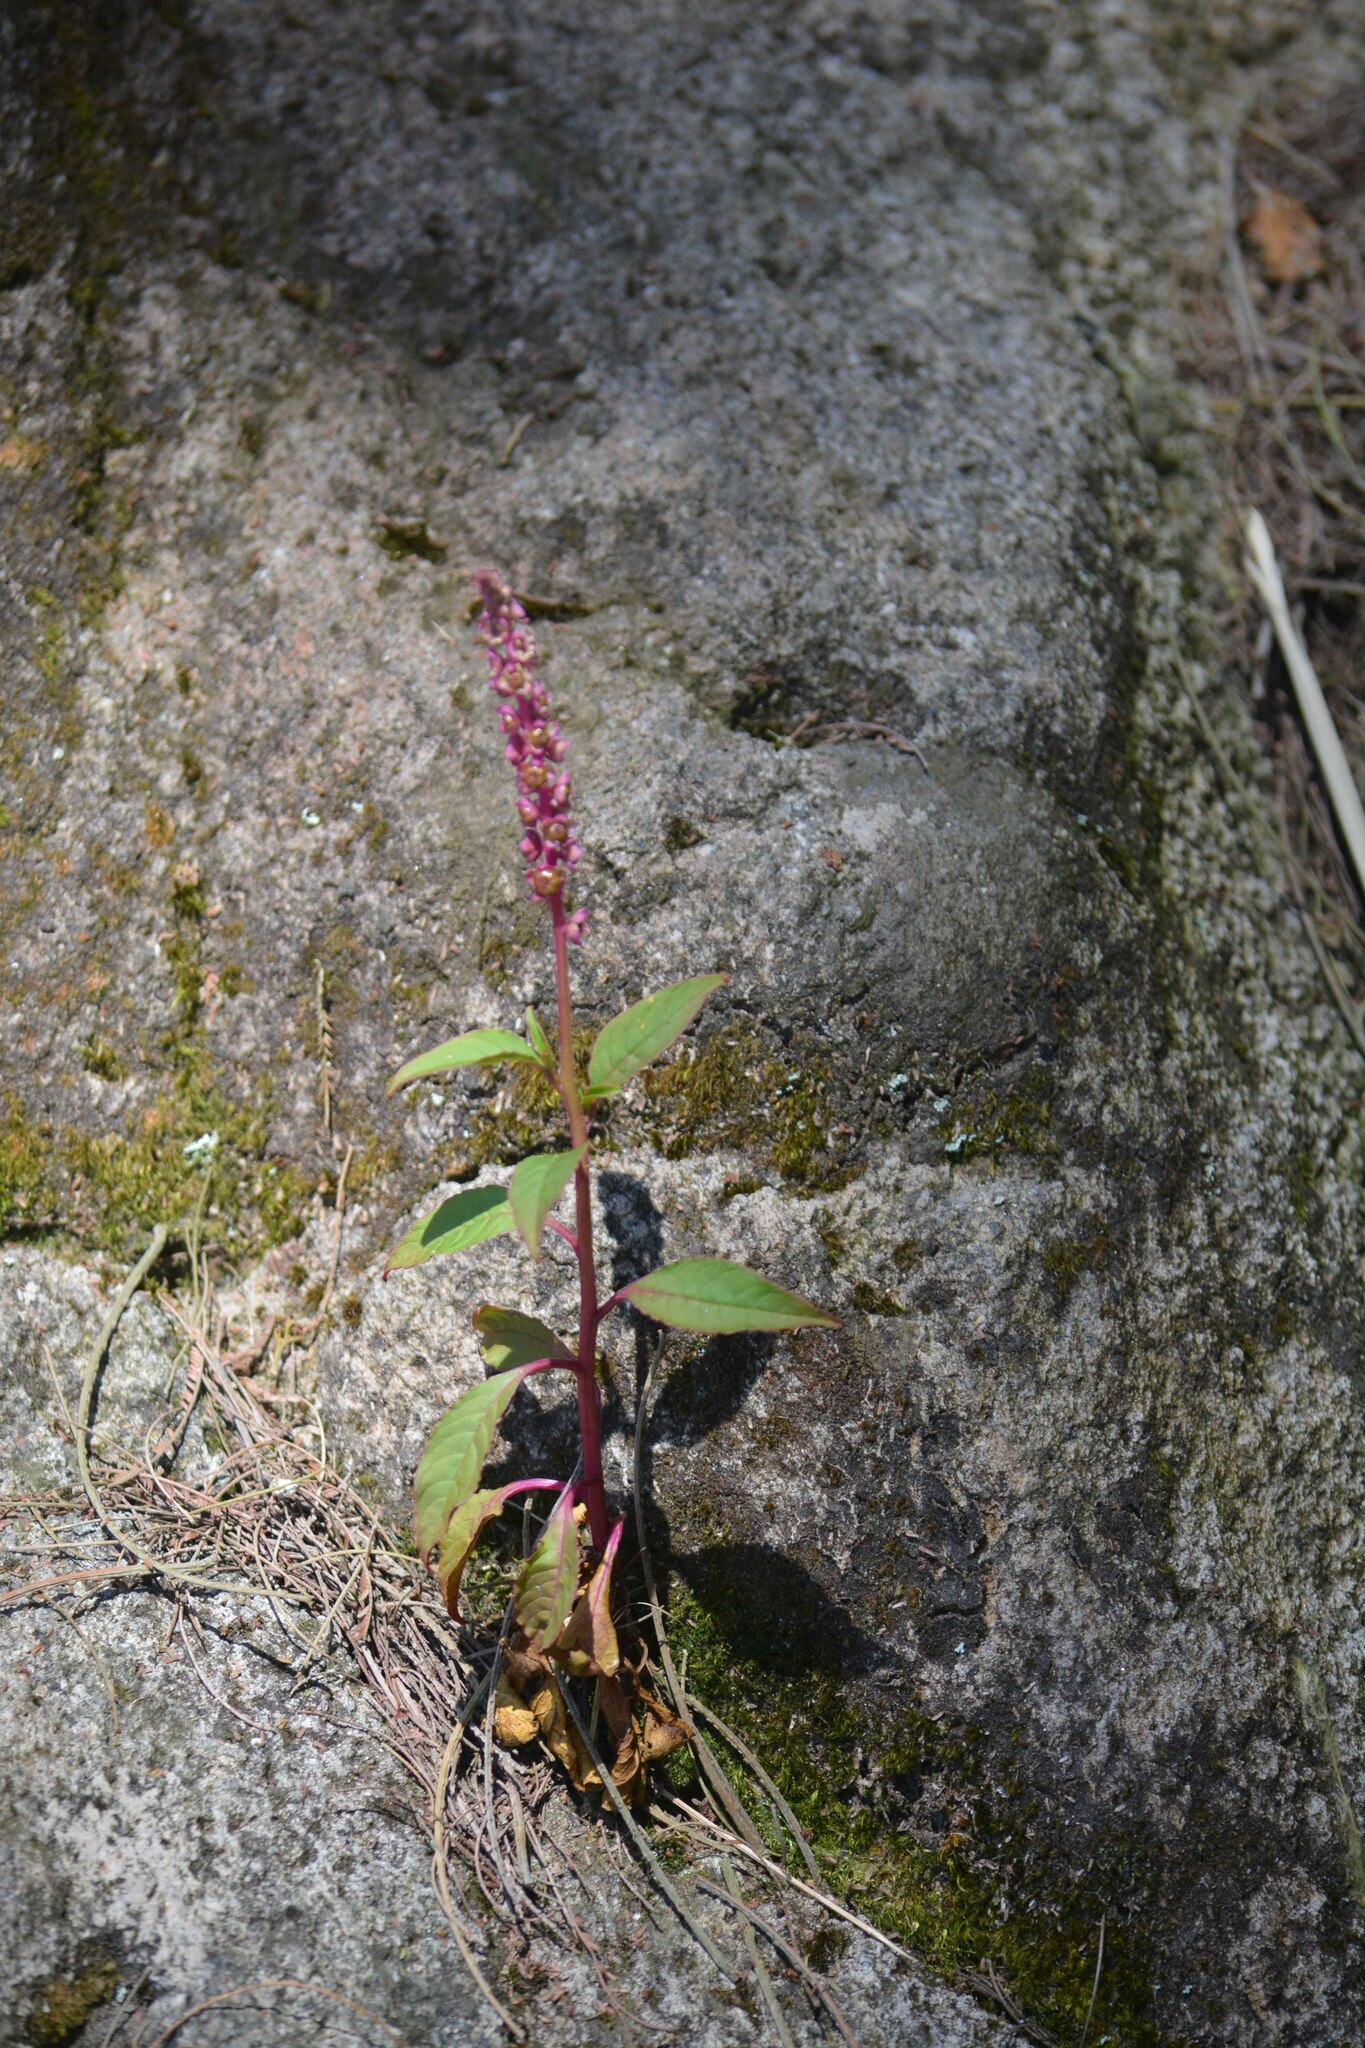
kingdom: Plantae
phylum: Tracheophyta
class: Magnoliopsida
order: Caryophyllales
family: Phytolaccaceae
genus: Phytolacca
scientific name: Phytolacca icosandra
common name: Button pokeweed
